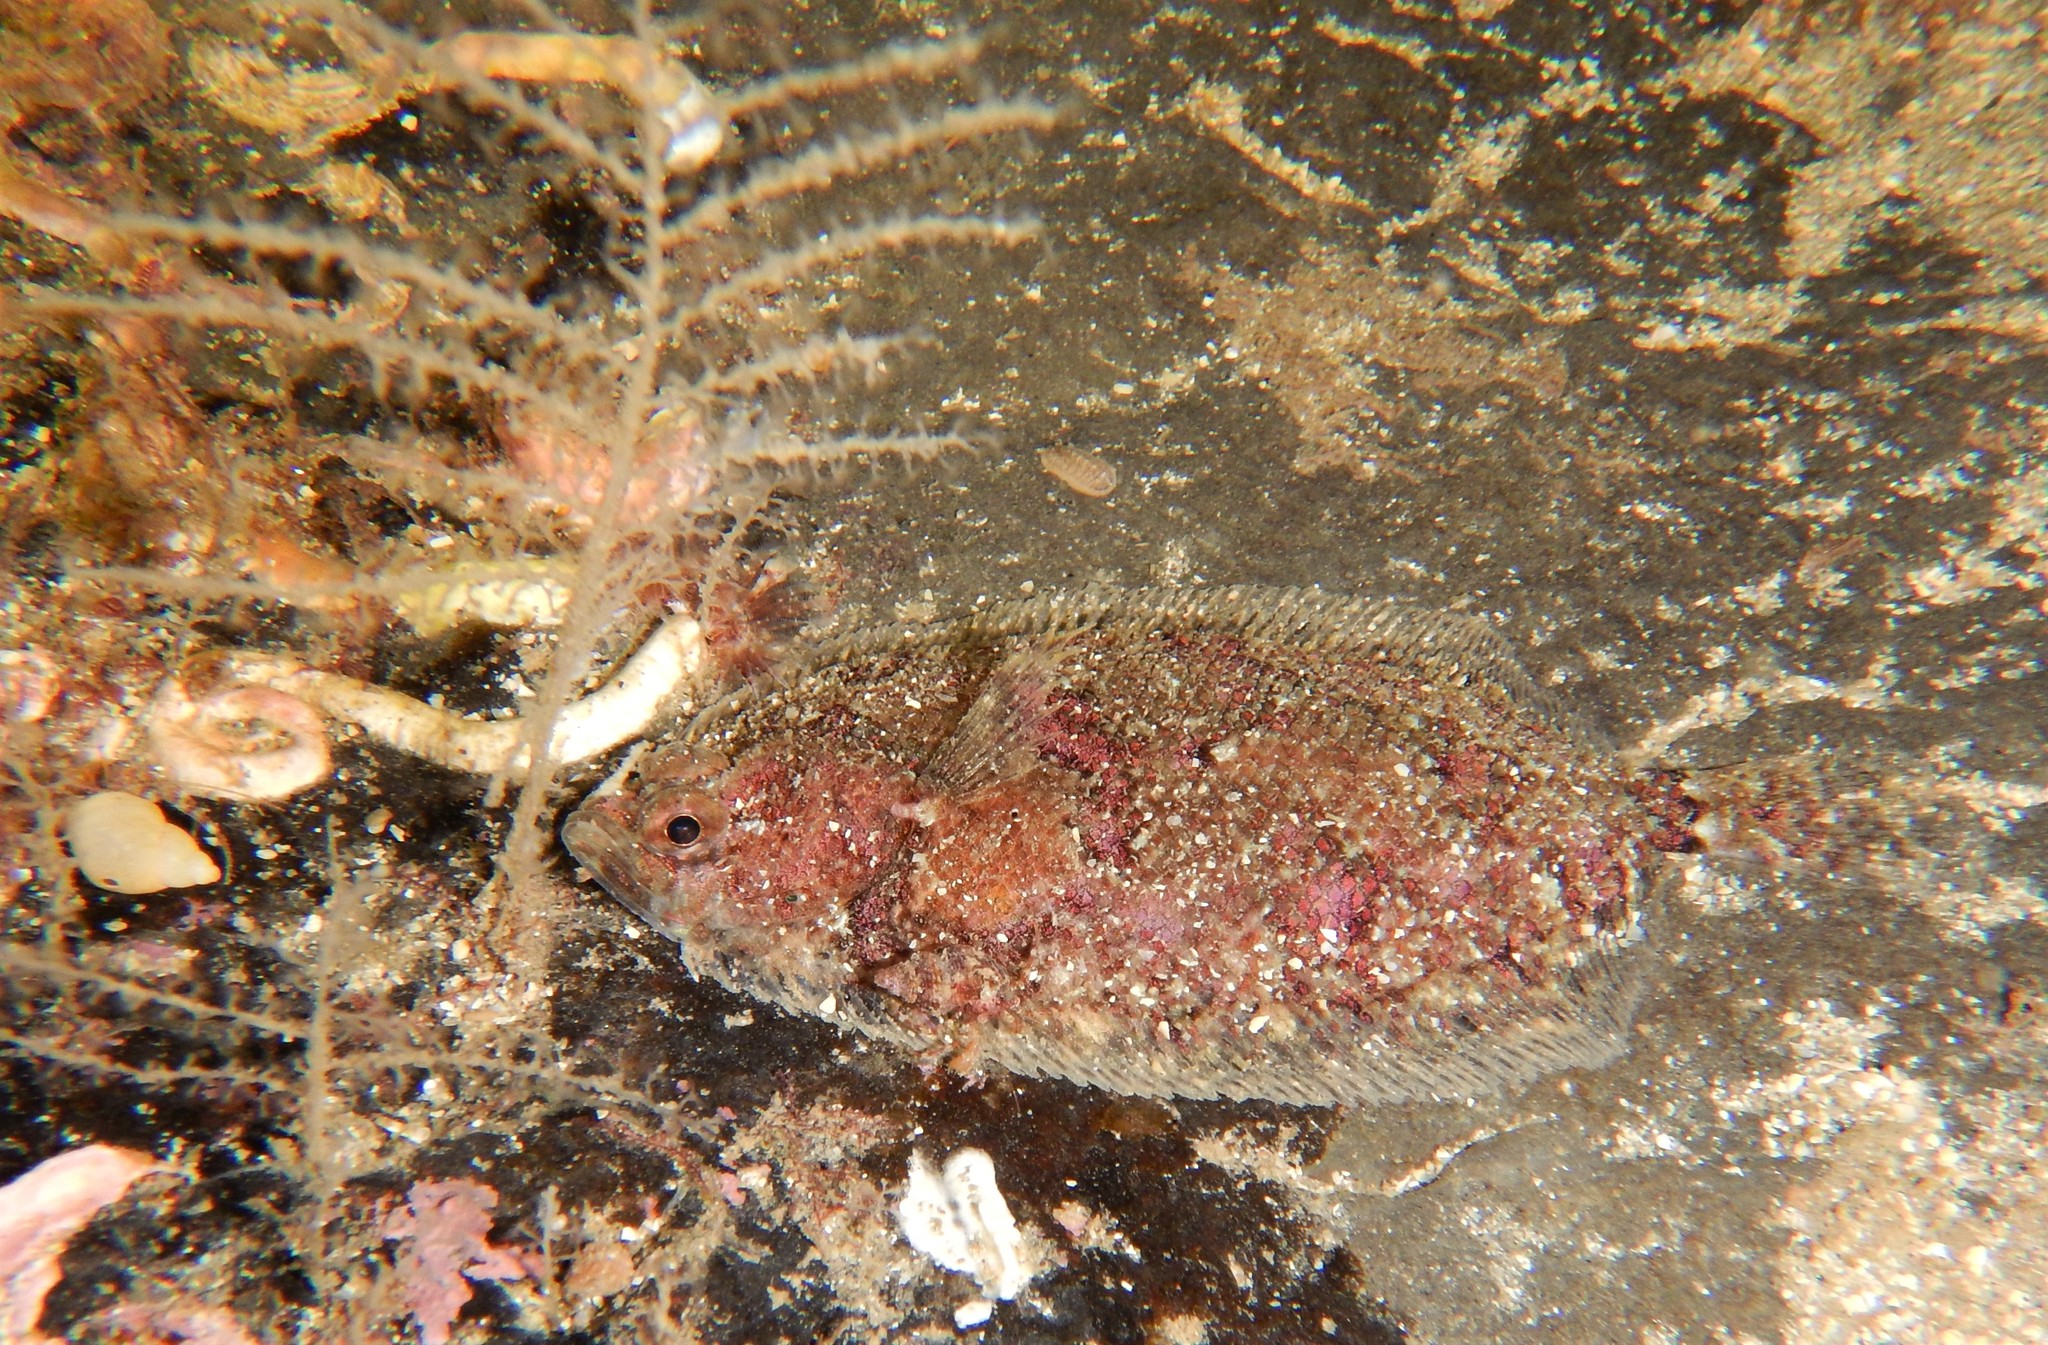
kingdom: Animalia
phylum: Chordata
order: Pleuronectiformes
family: Scophthalmidae
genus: Phrynorhombus
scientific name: Phrynorhombus norvegicus
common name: Norwegian topknot
